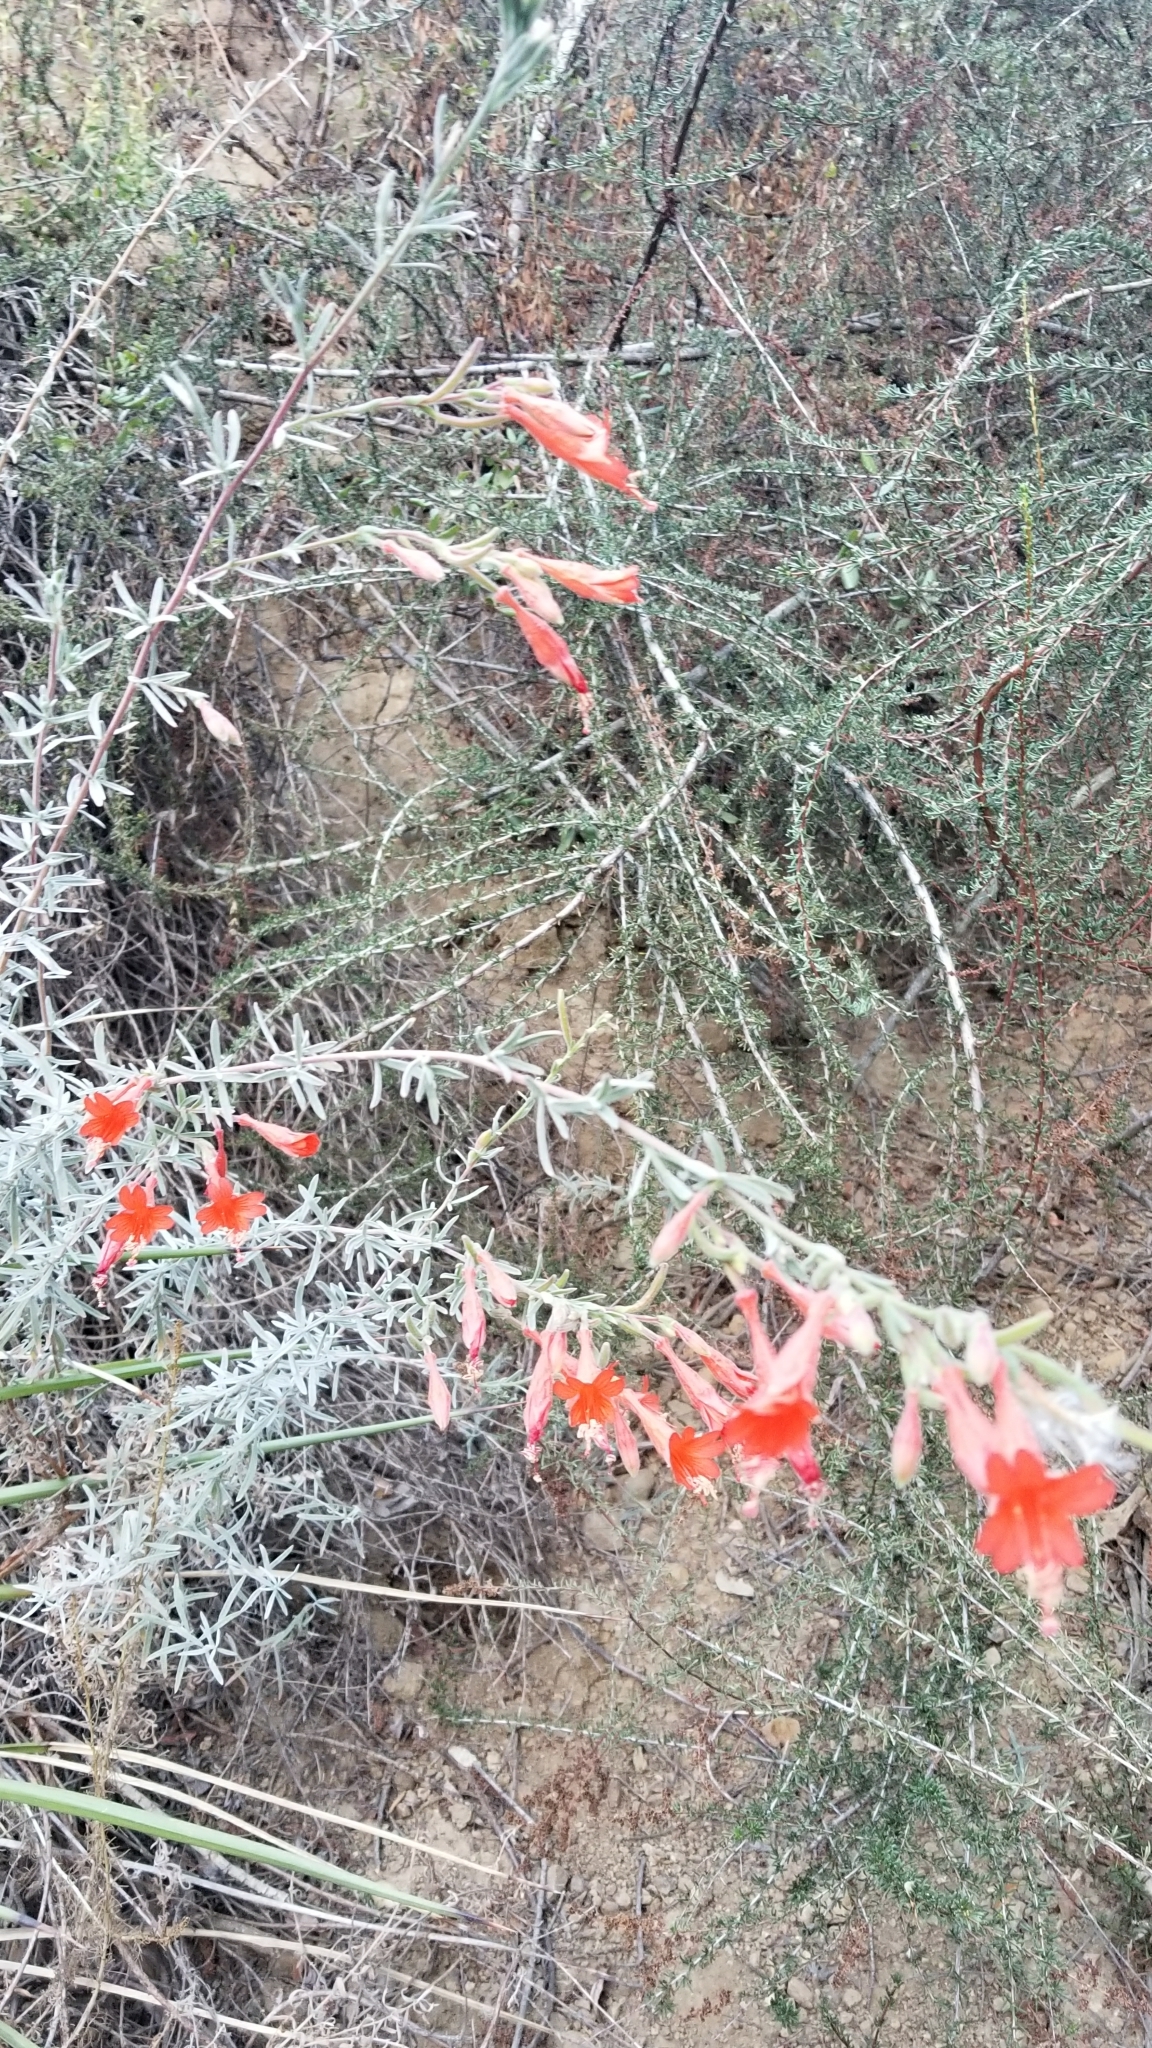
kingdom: Plantae
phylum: Tracheophyta
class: Magnoliopsida
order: Myrtales
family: Onagraceae
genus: Epilobium
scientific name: Epilobium canum
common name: California-fuchsia
